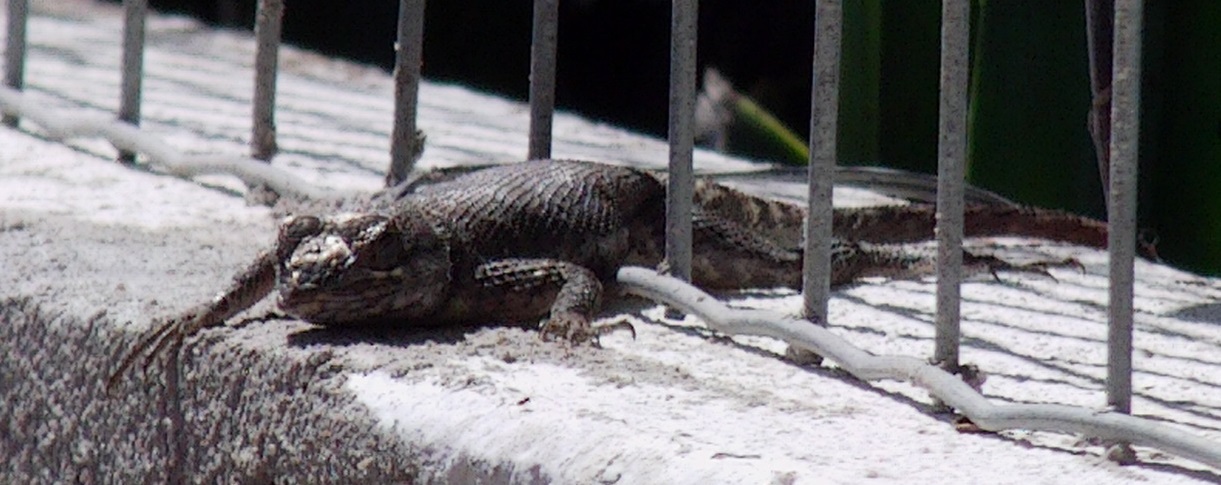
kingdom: Animalia
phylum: Chordata
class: Squamata
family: Tropiduridae
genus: Tropidurus
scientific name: Tropidurus hispidus
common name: Peters' lava lizard
